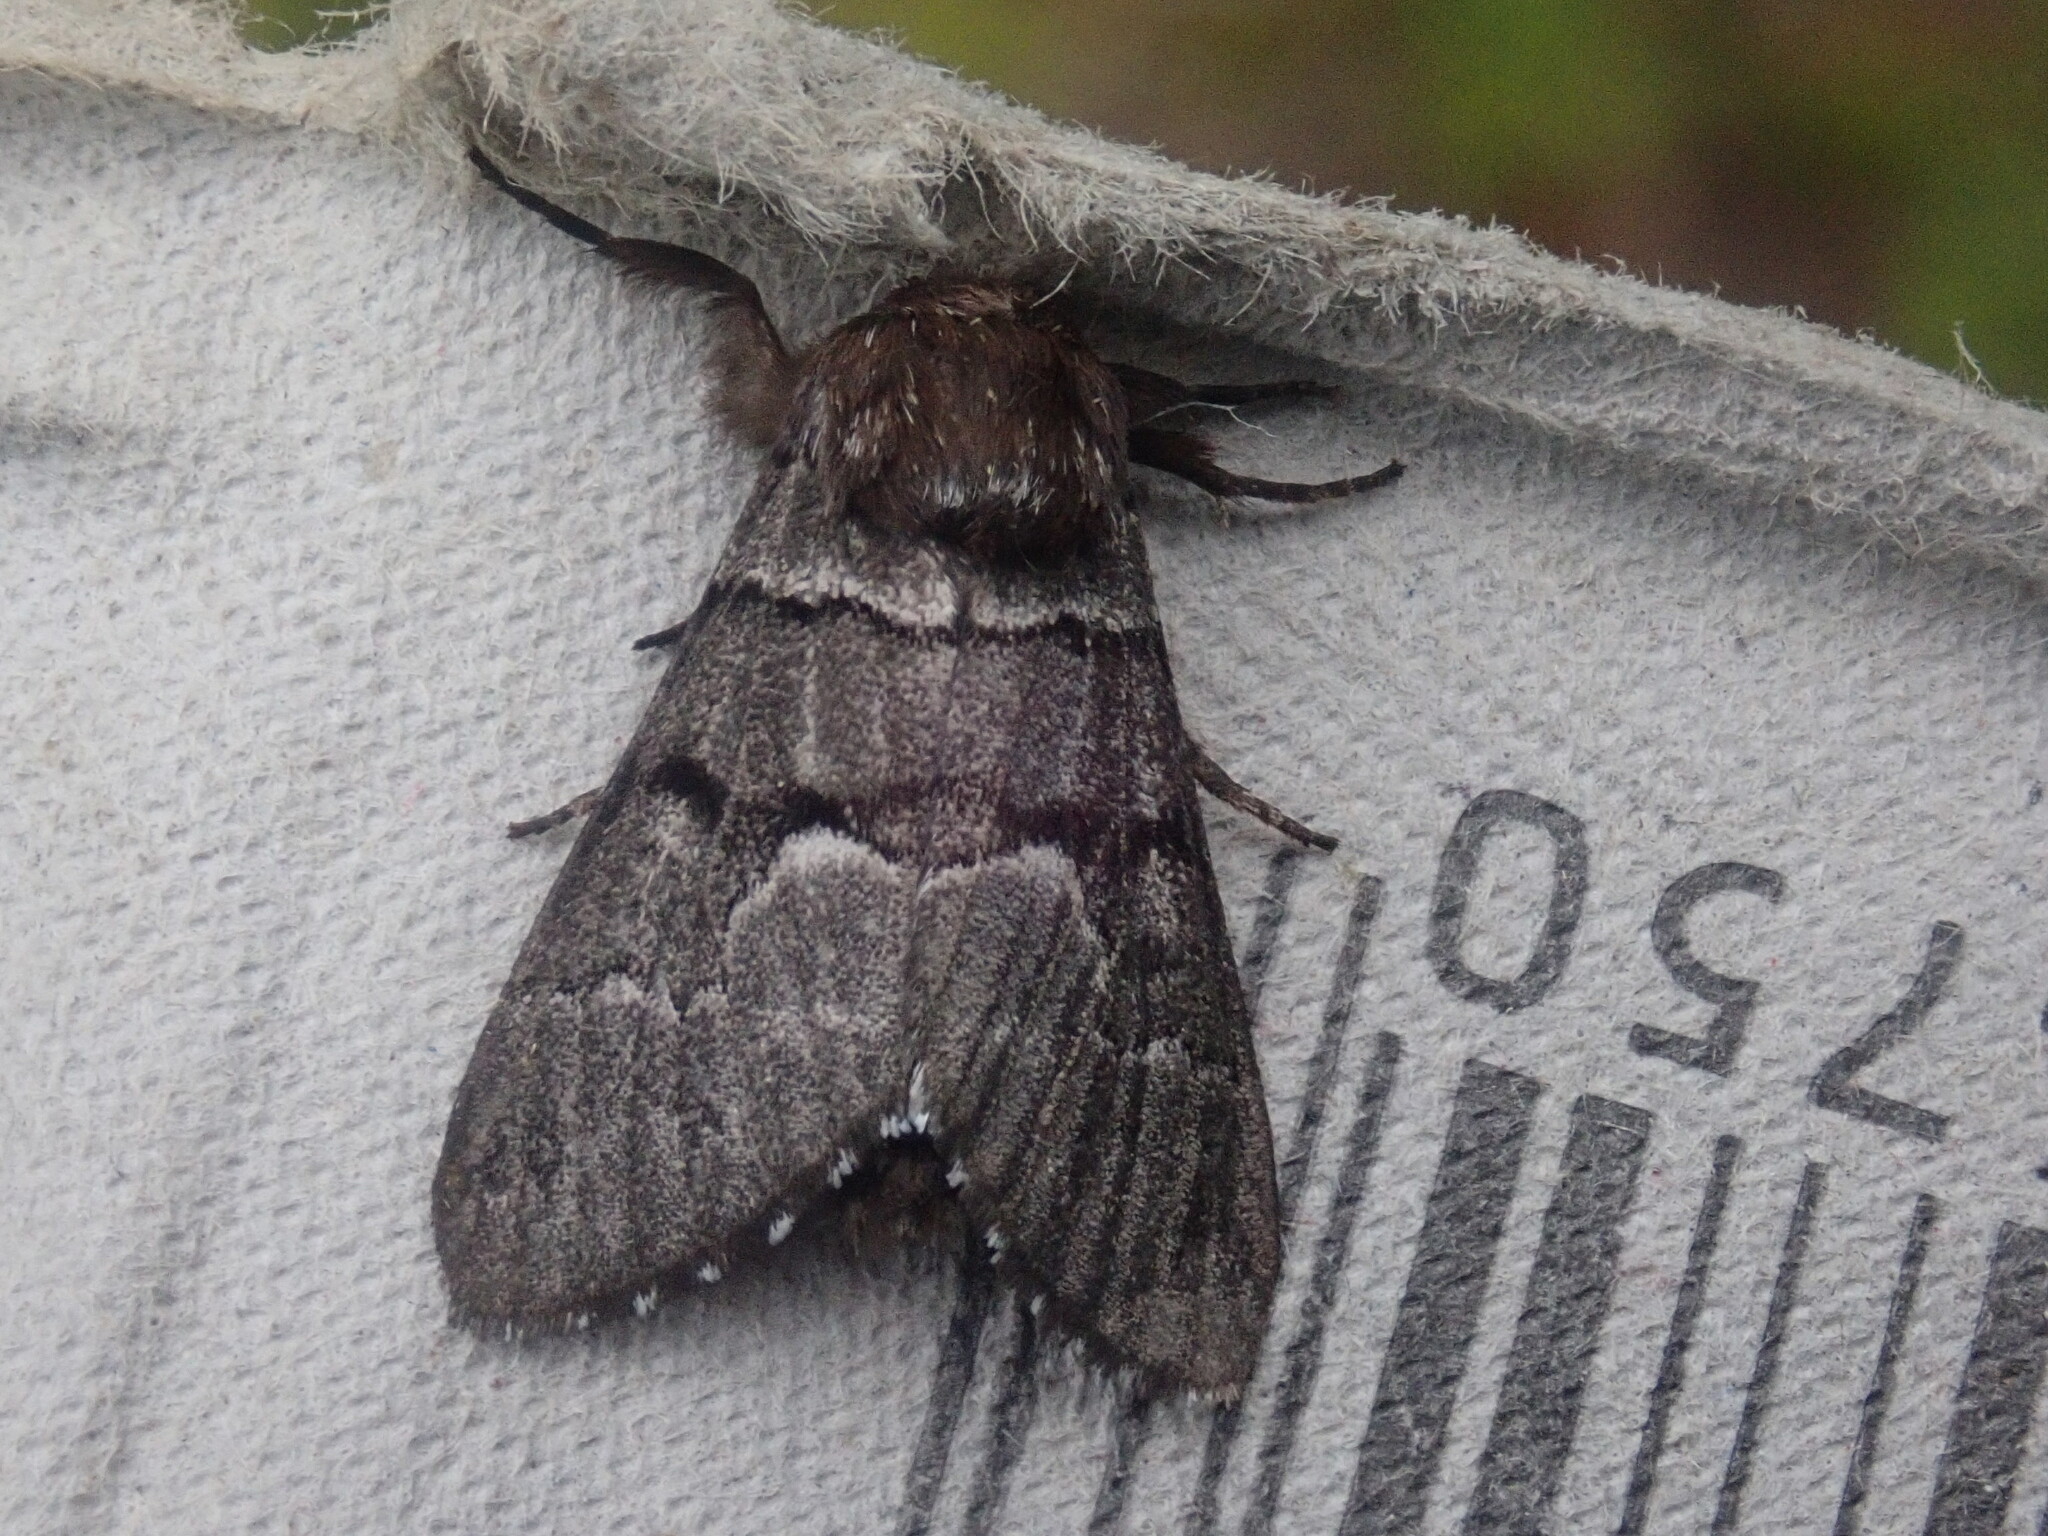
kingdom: Animalia
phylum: Arthropoda
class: Insecta
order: Lepidoptera
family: Noctuidae
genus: Panthea
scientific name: Panthea furcilla
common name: Eastern panthea moth
